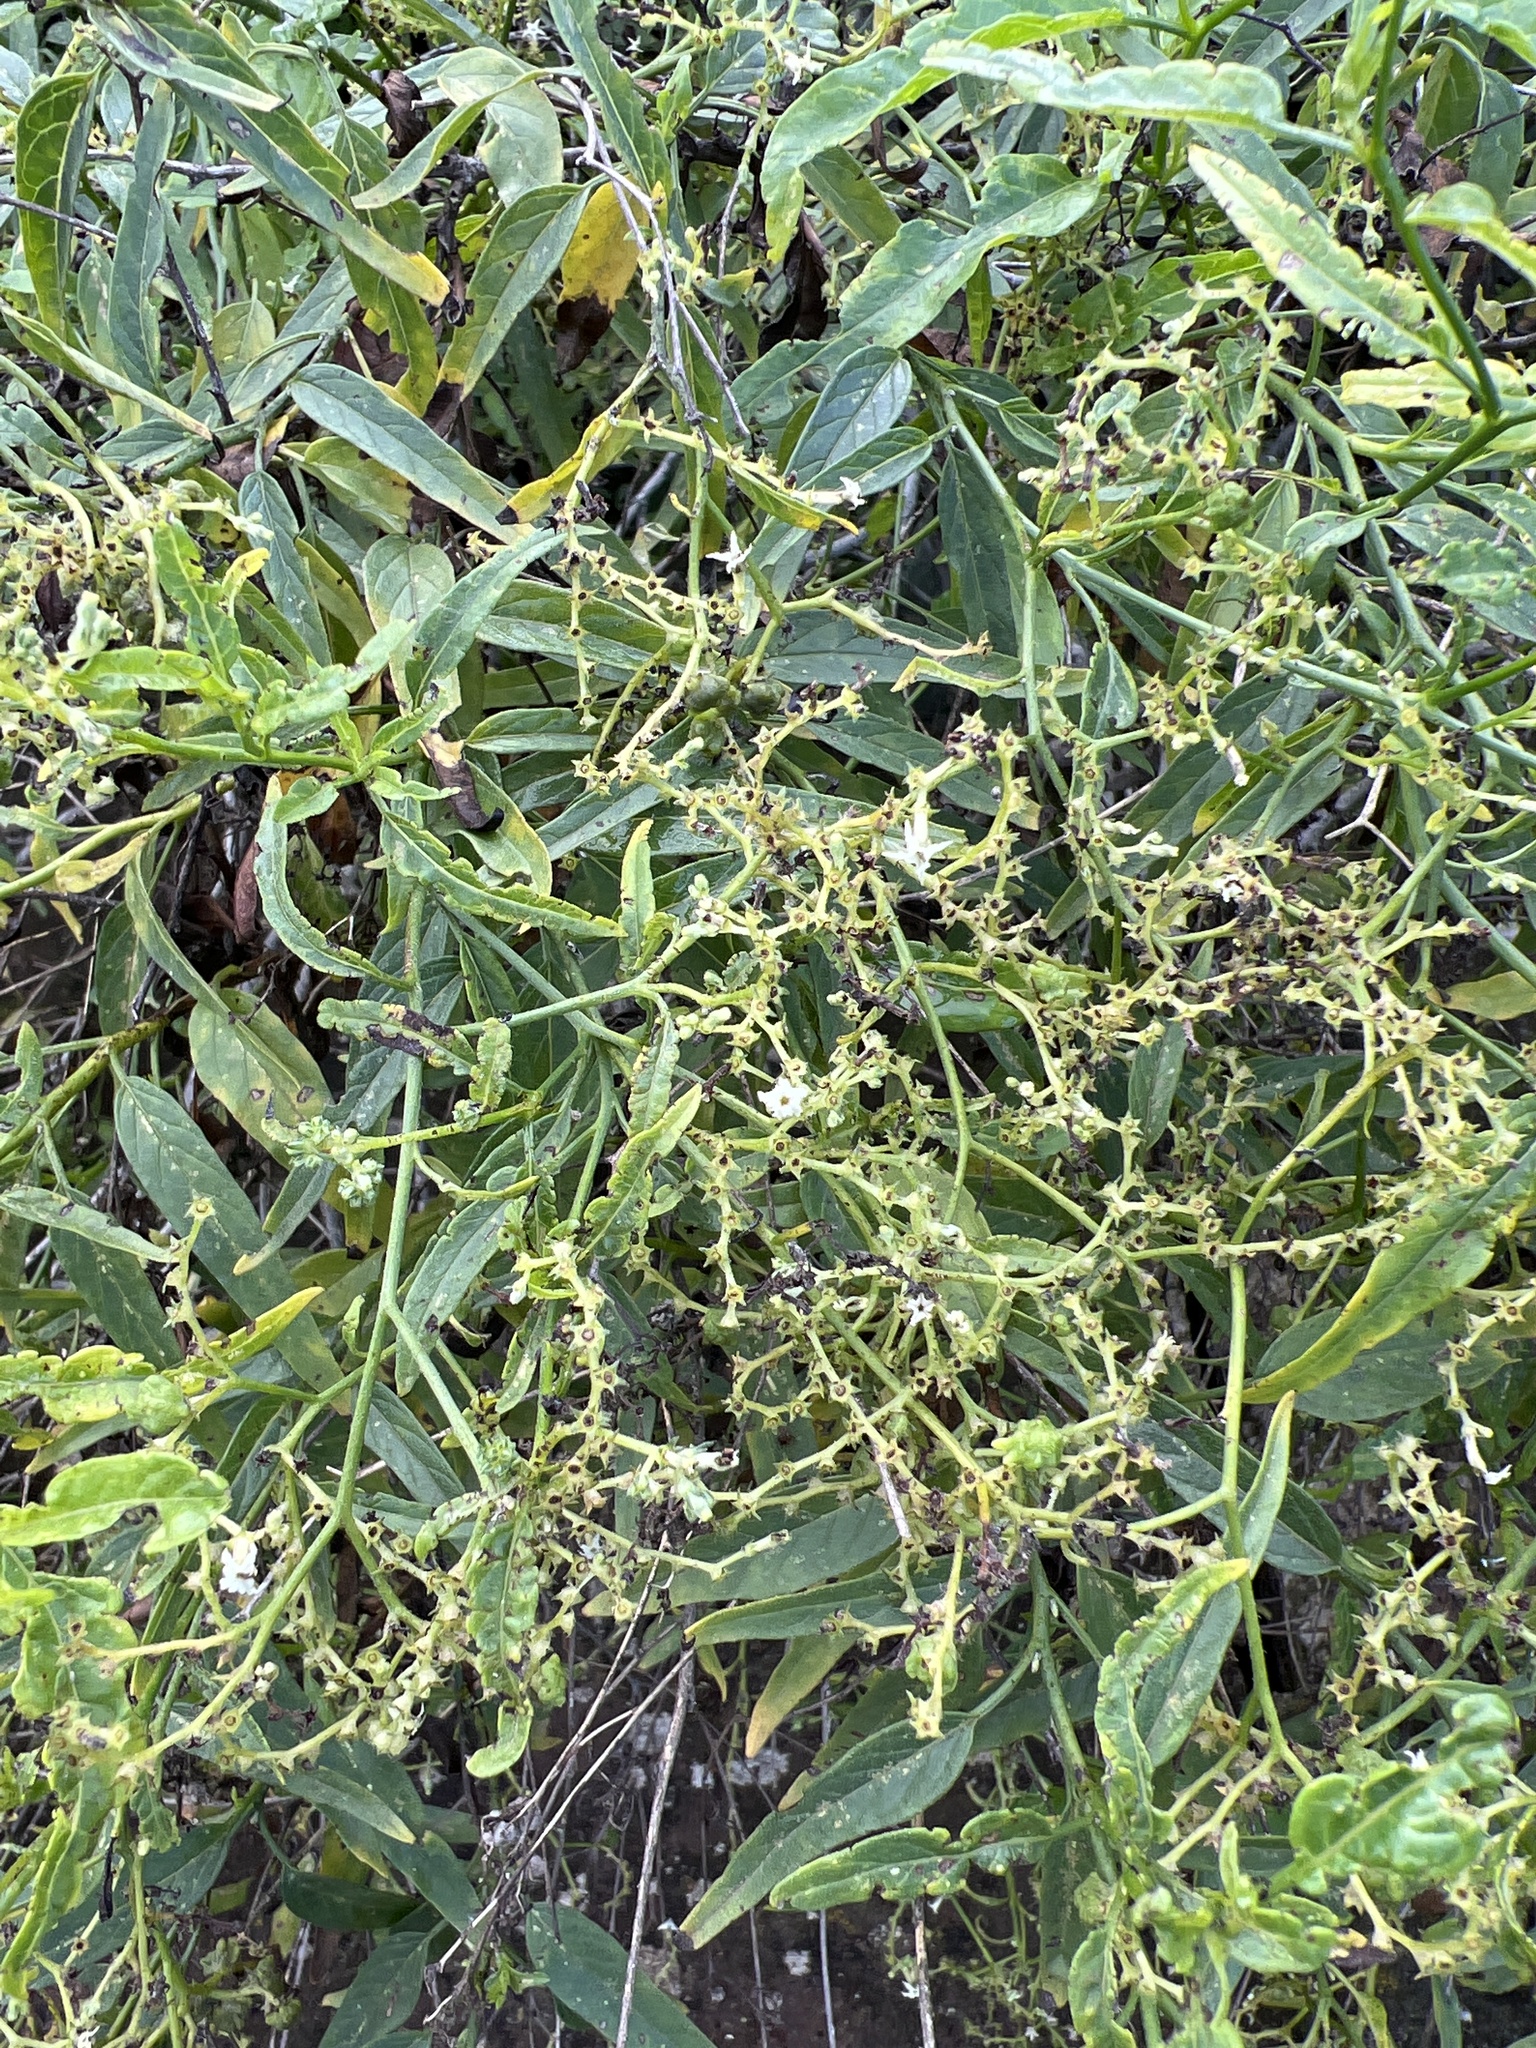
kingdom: Plantae
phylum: Tracheophyta
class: Magnoliopsida
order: Boraginales
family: Heliotropiaceae
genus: Heliotropium
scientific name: Heliotropium messerschmidioides
